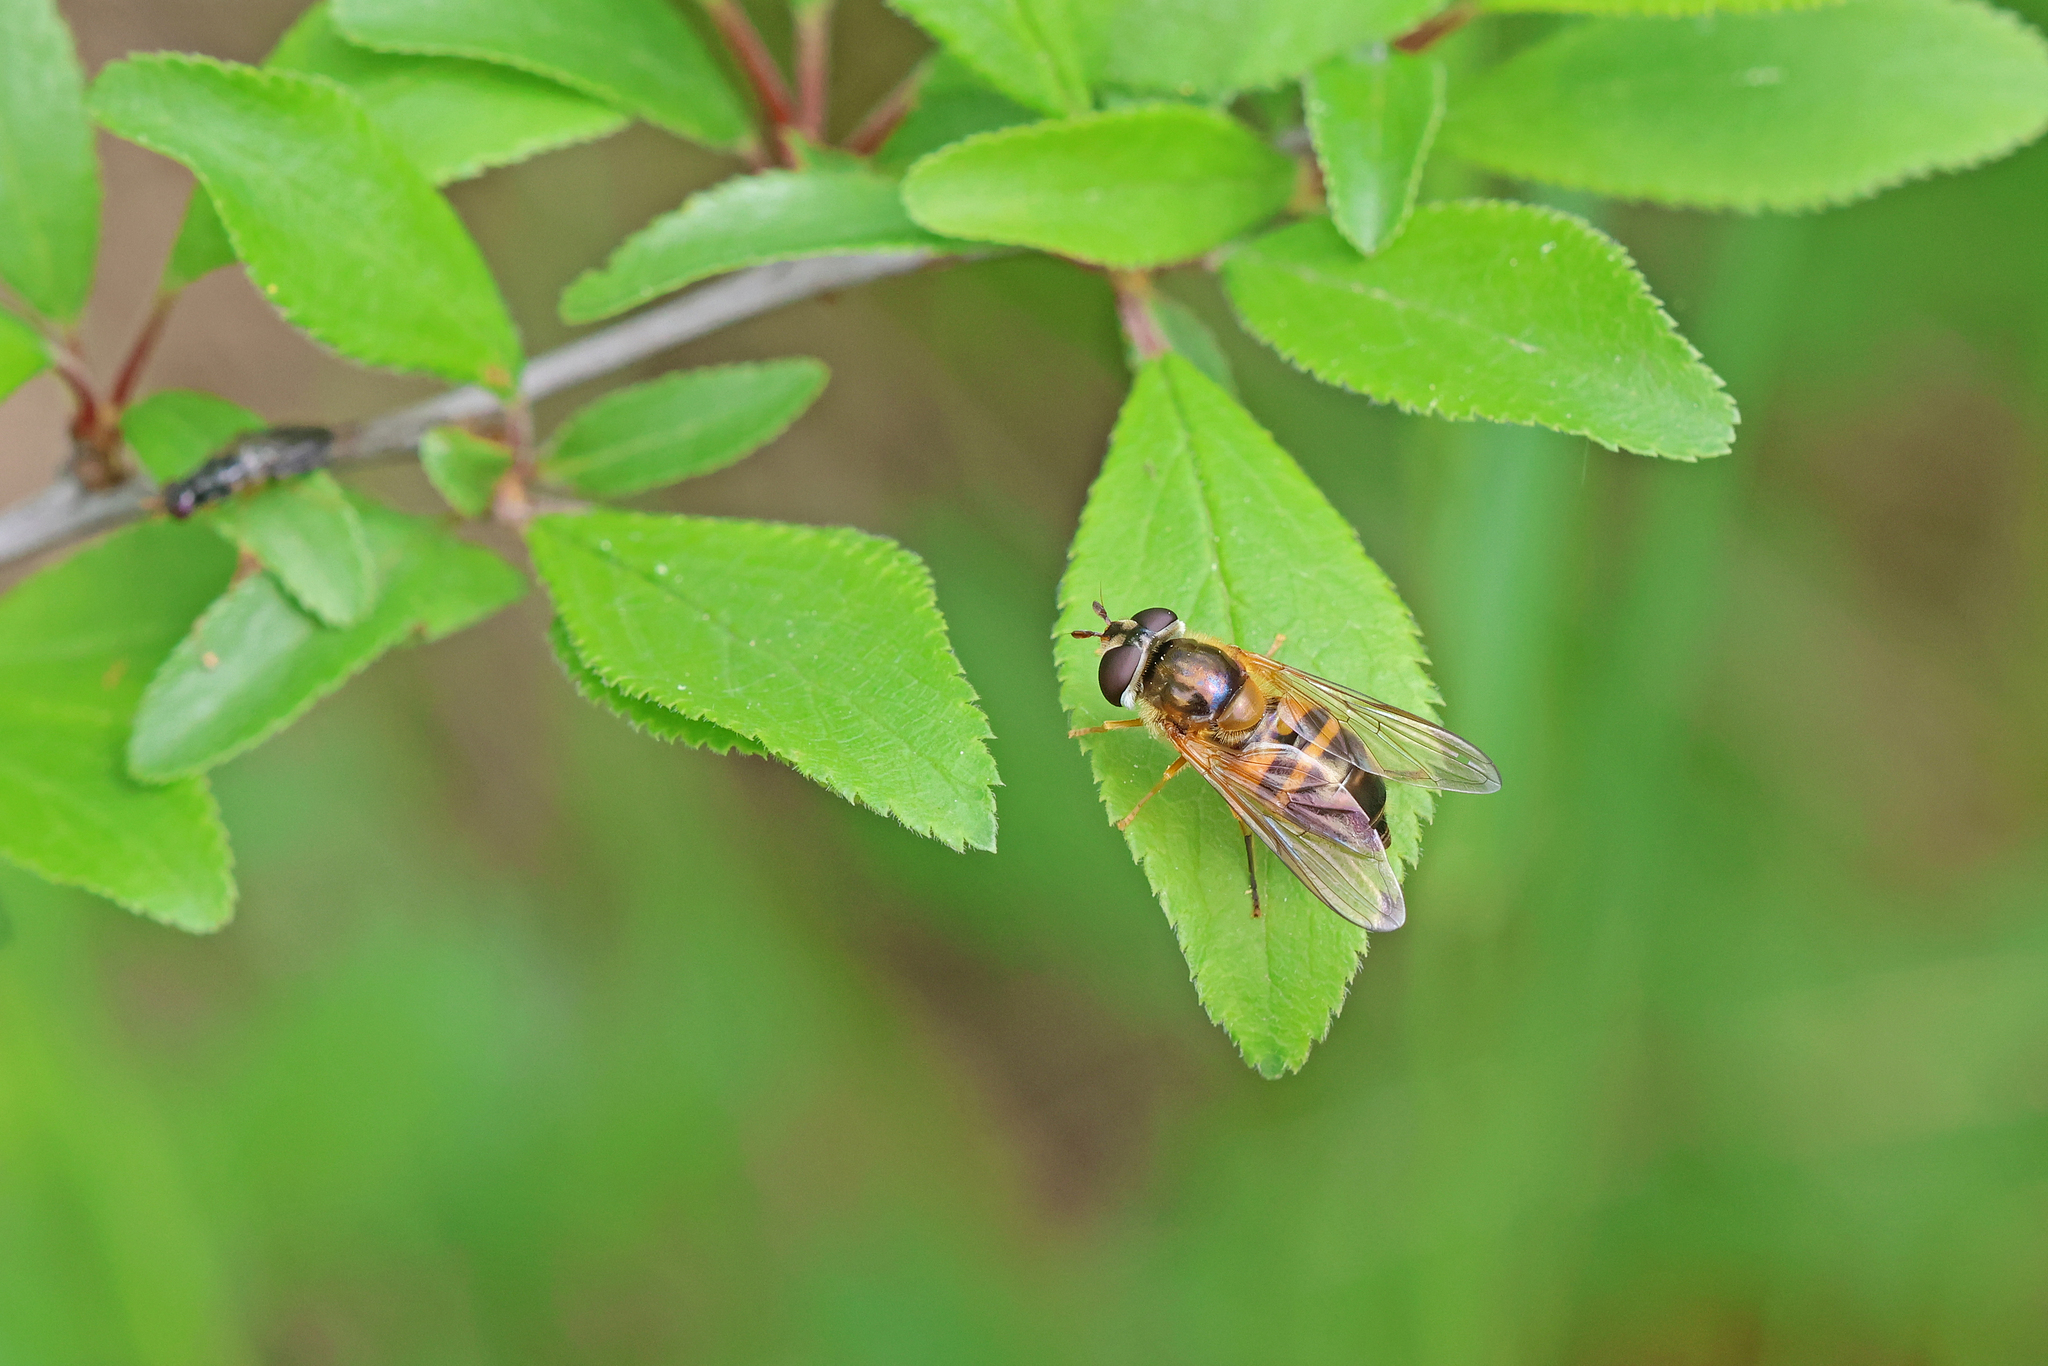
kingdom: Animalia
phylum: Arthropoda
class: Insecta
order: Diptera
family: Syrphidae
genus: Epistrophe
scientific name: Epistrophe eligans
